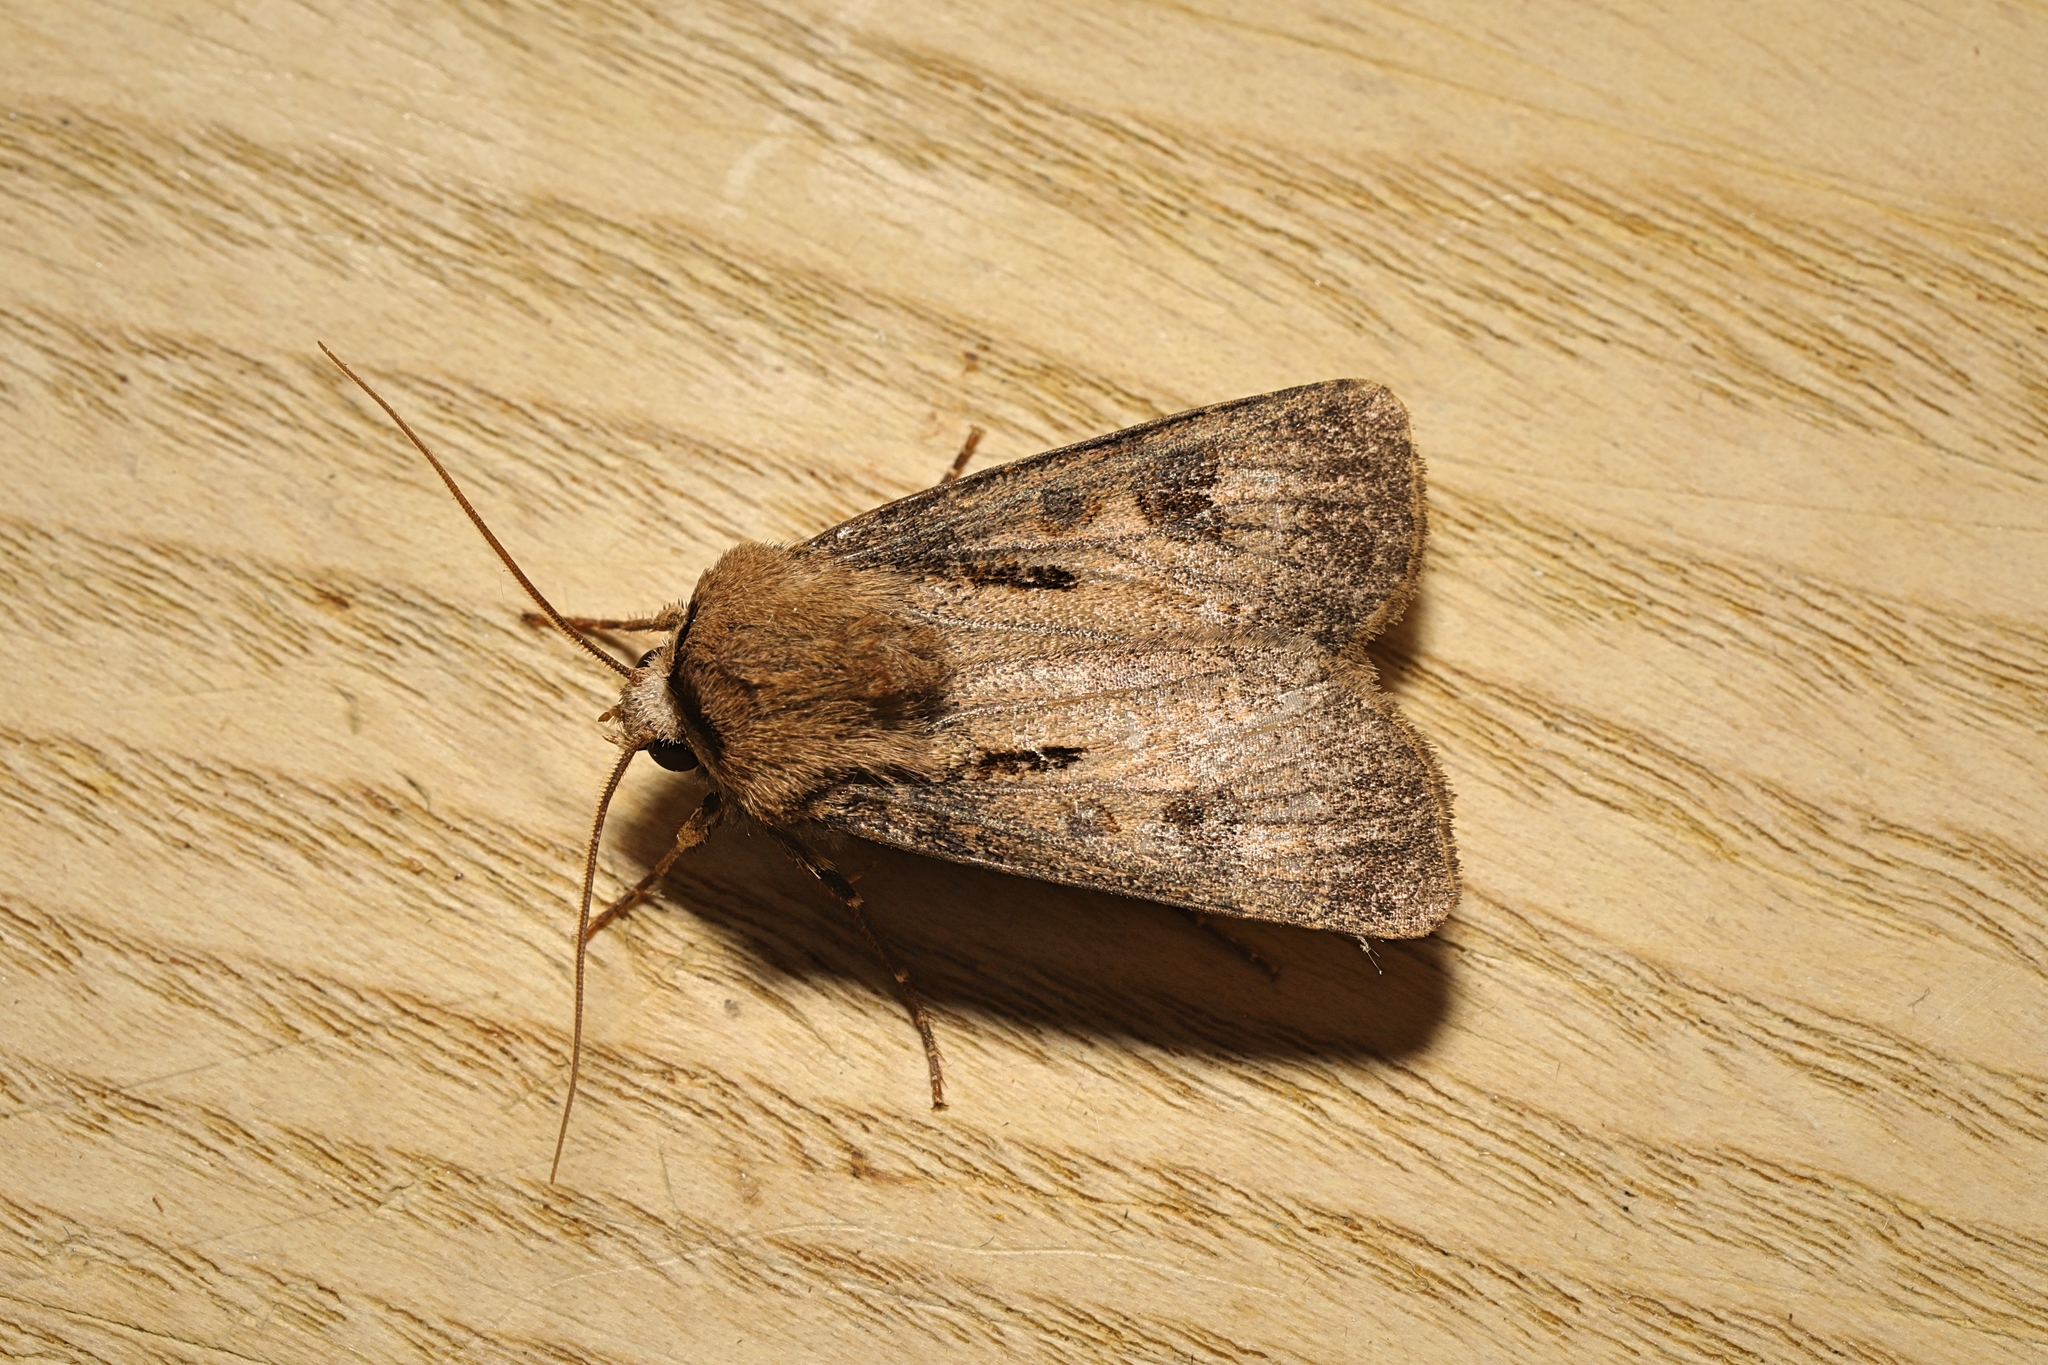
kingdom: Animalia
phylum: Arthropoda
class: Insecta
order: Lepidoptera
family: Noctuidae
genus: Agrotis
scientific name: Agrotis exclamationis
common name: Heart and dart
